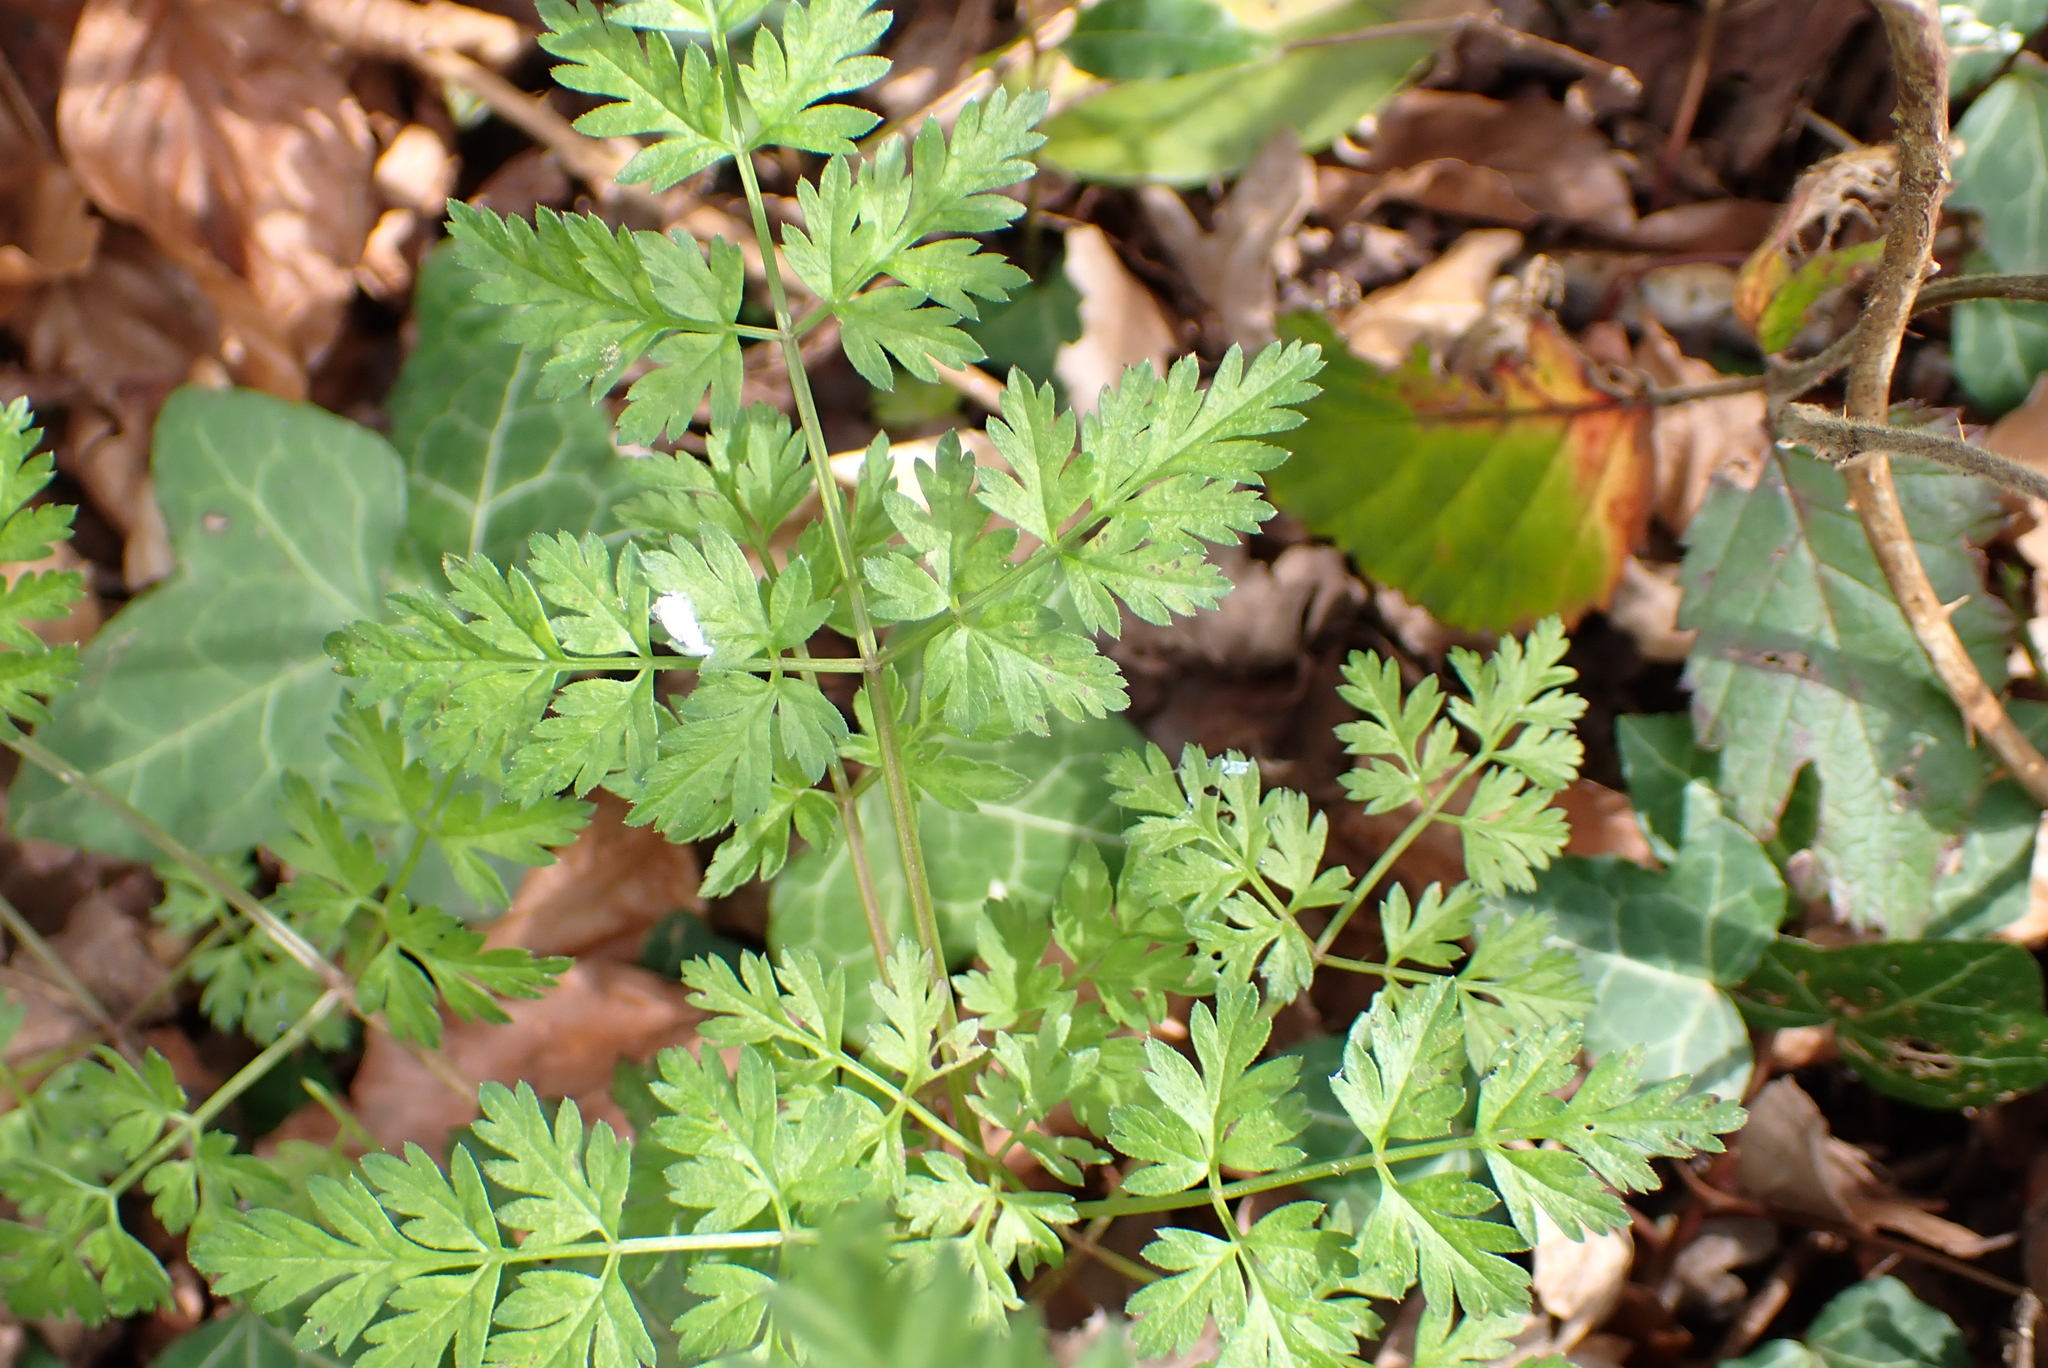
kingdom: Plantae
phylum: Tracheophyta
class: Magnoliopsida
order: Apiales
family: Apiaceae
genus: Anthriscus
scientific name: Anthriscus sylvestris
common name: Cow parsley
